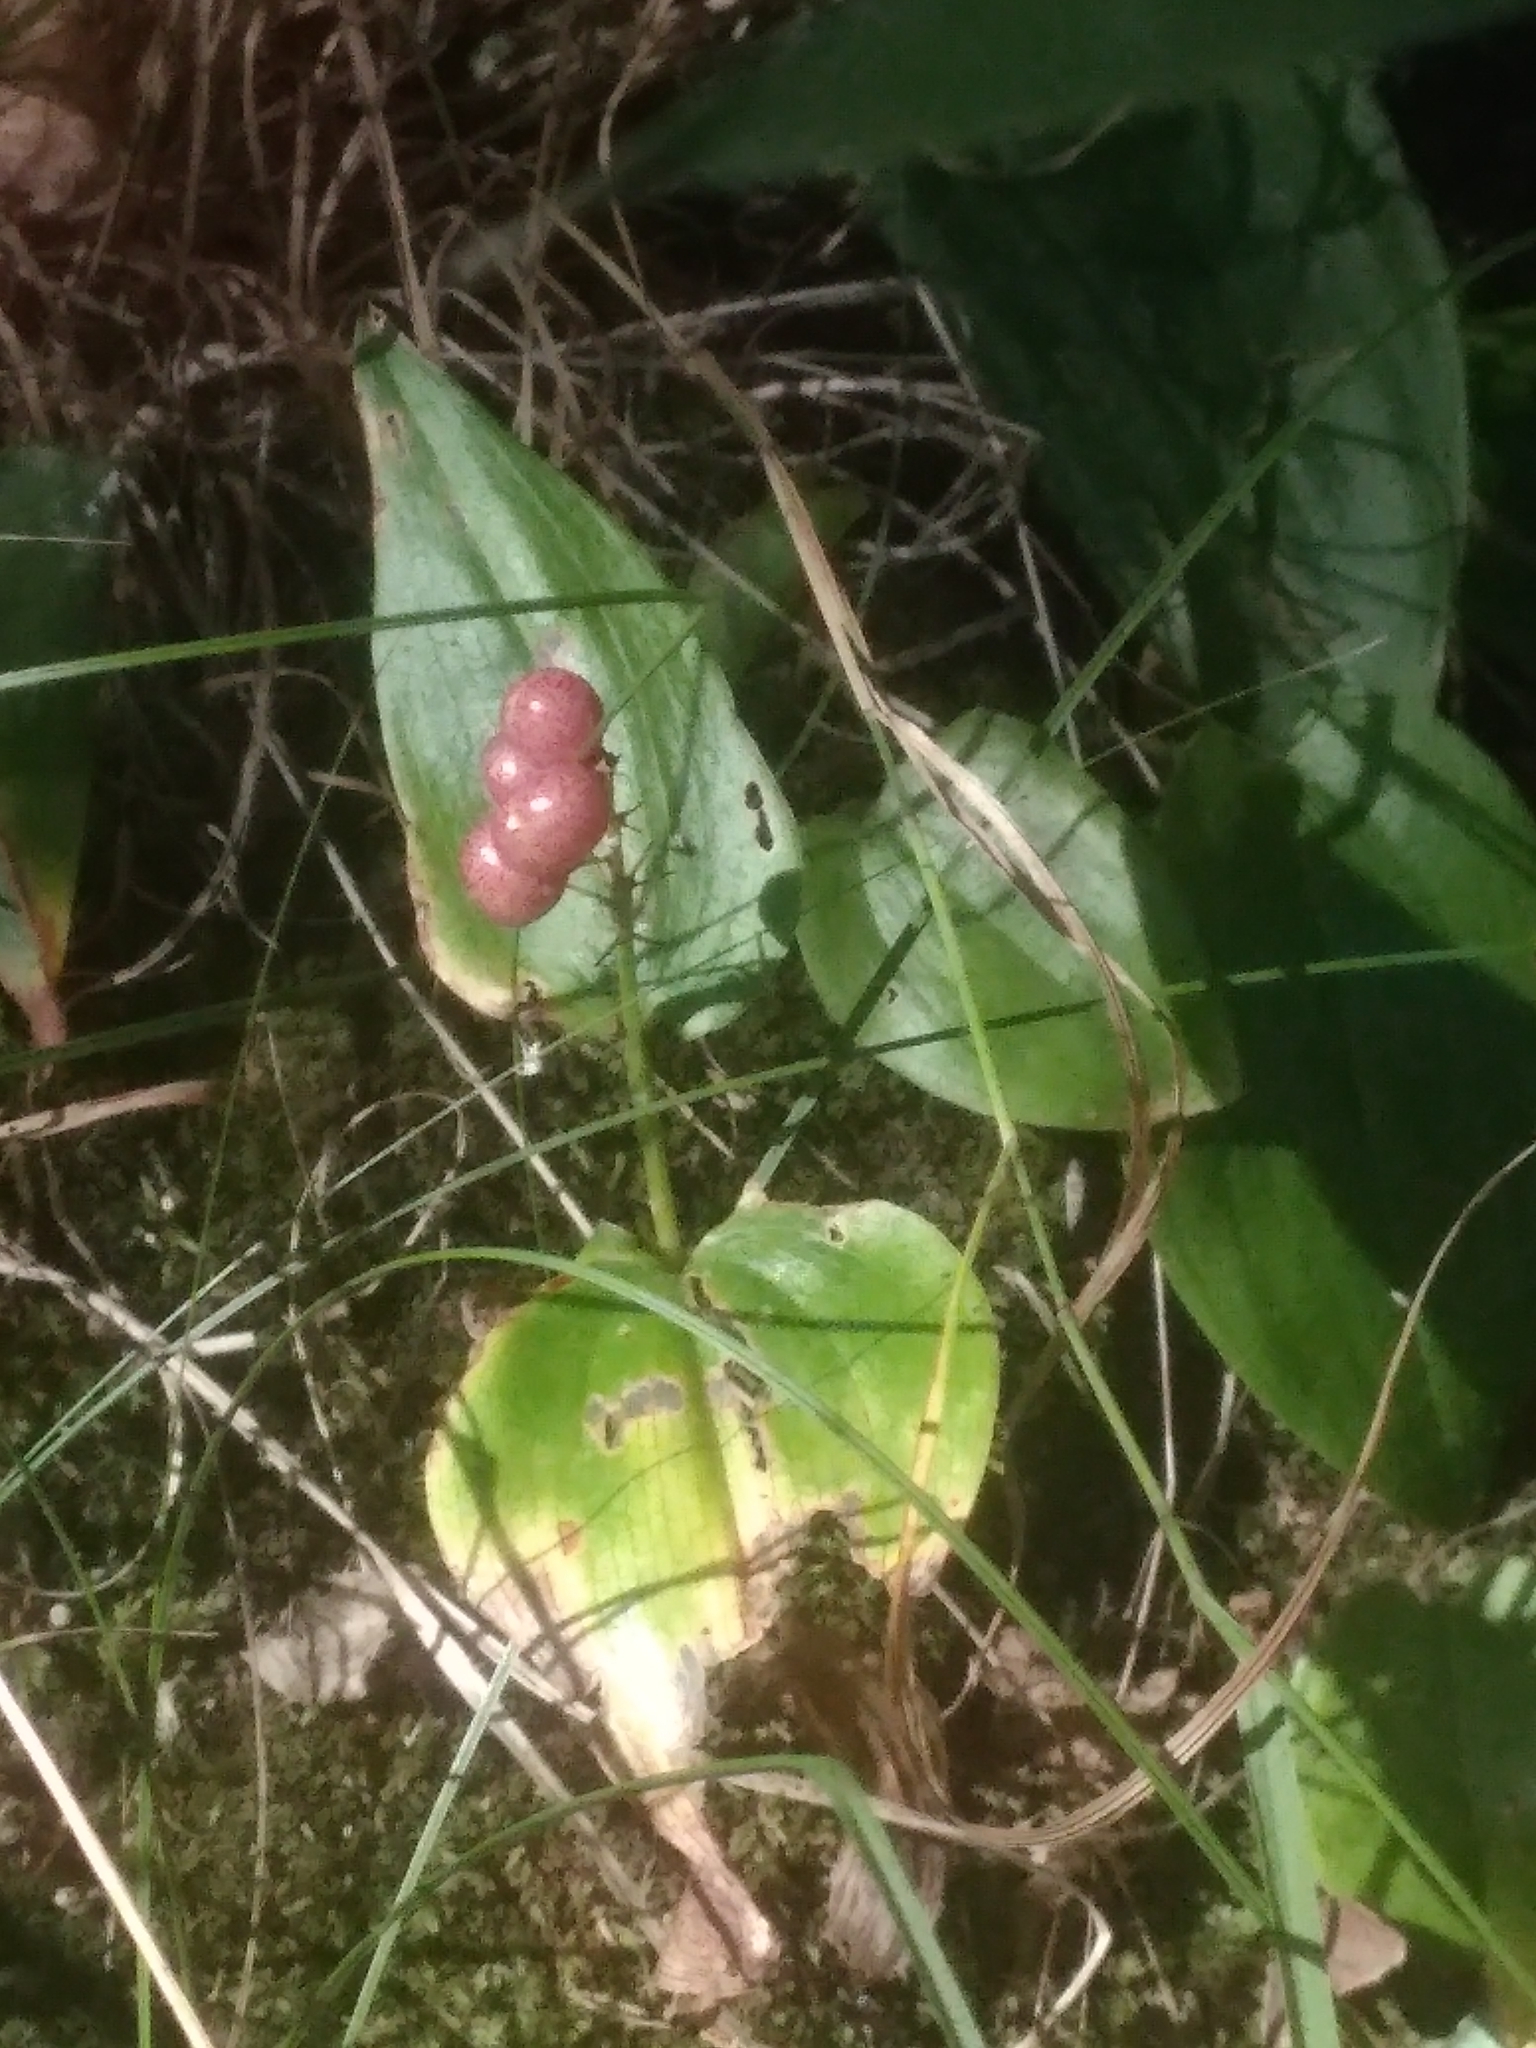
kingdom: Plantae
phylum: Tracheophyta
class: Liliopsida
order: Asparagales
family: Asparagaceae
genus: Maianthemum
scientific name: Maianthemum canadense
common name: False lily-of-the-valley
